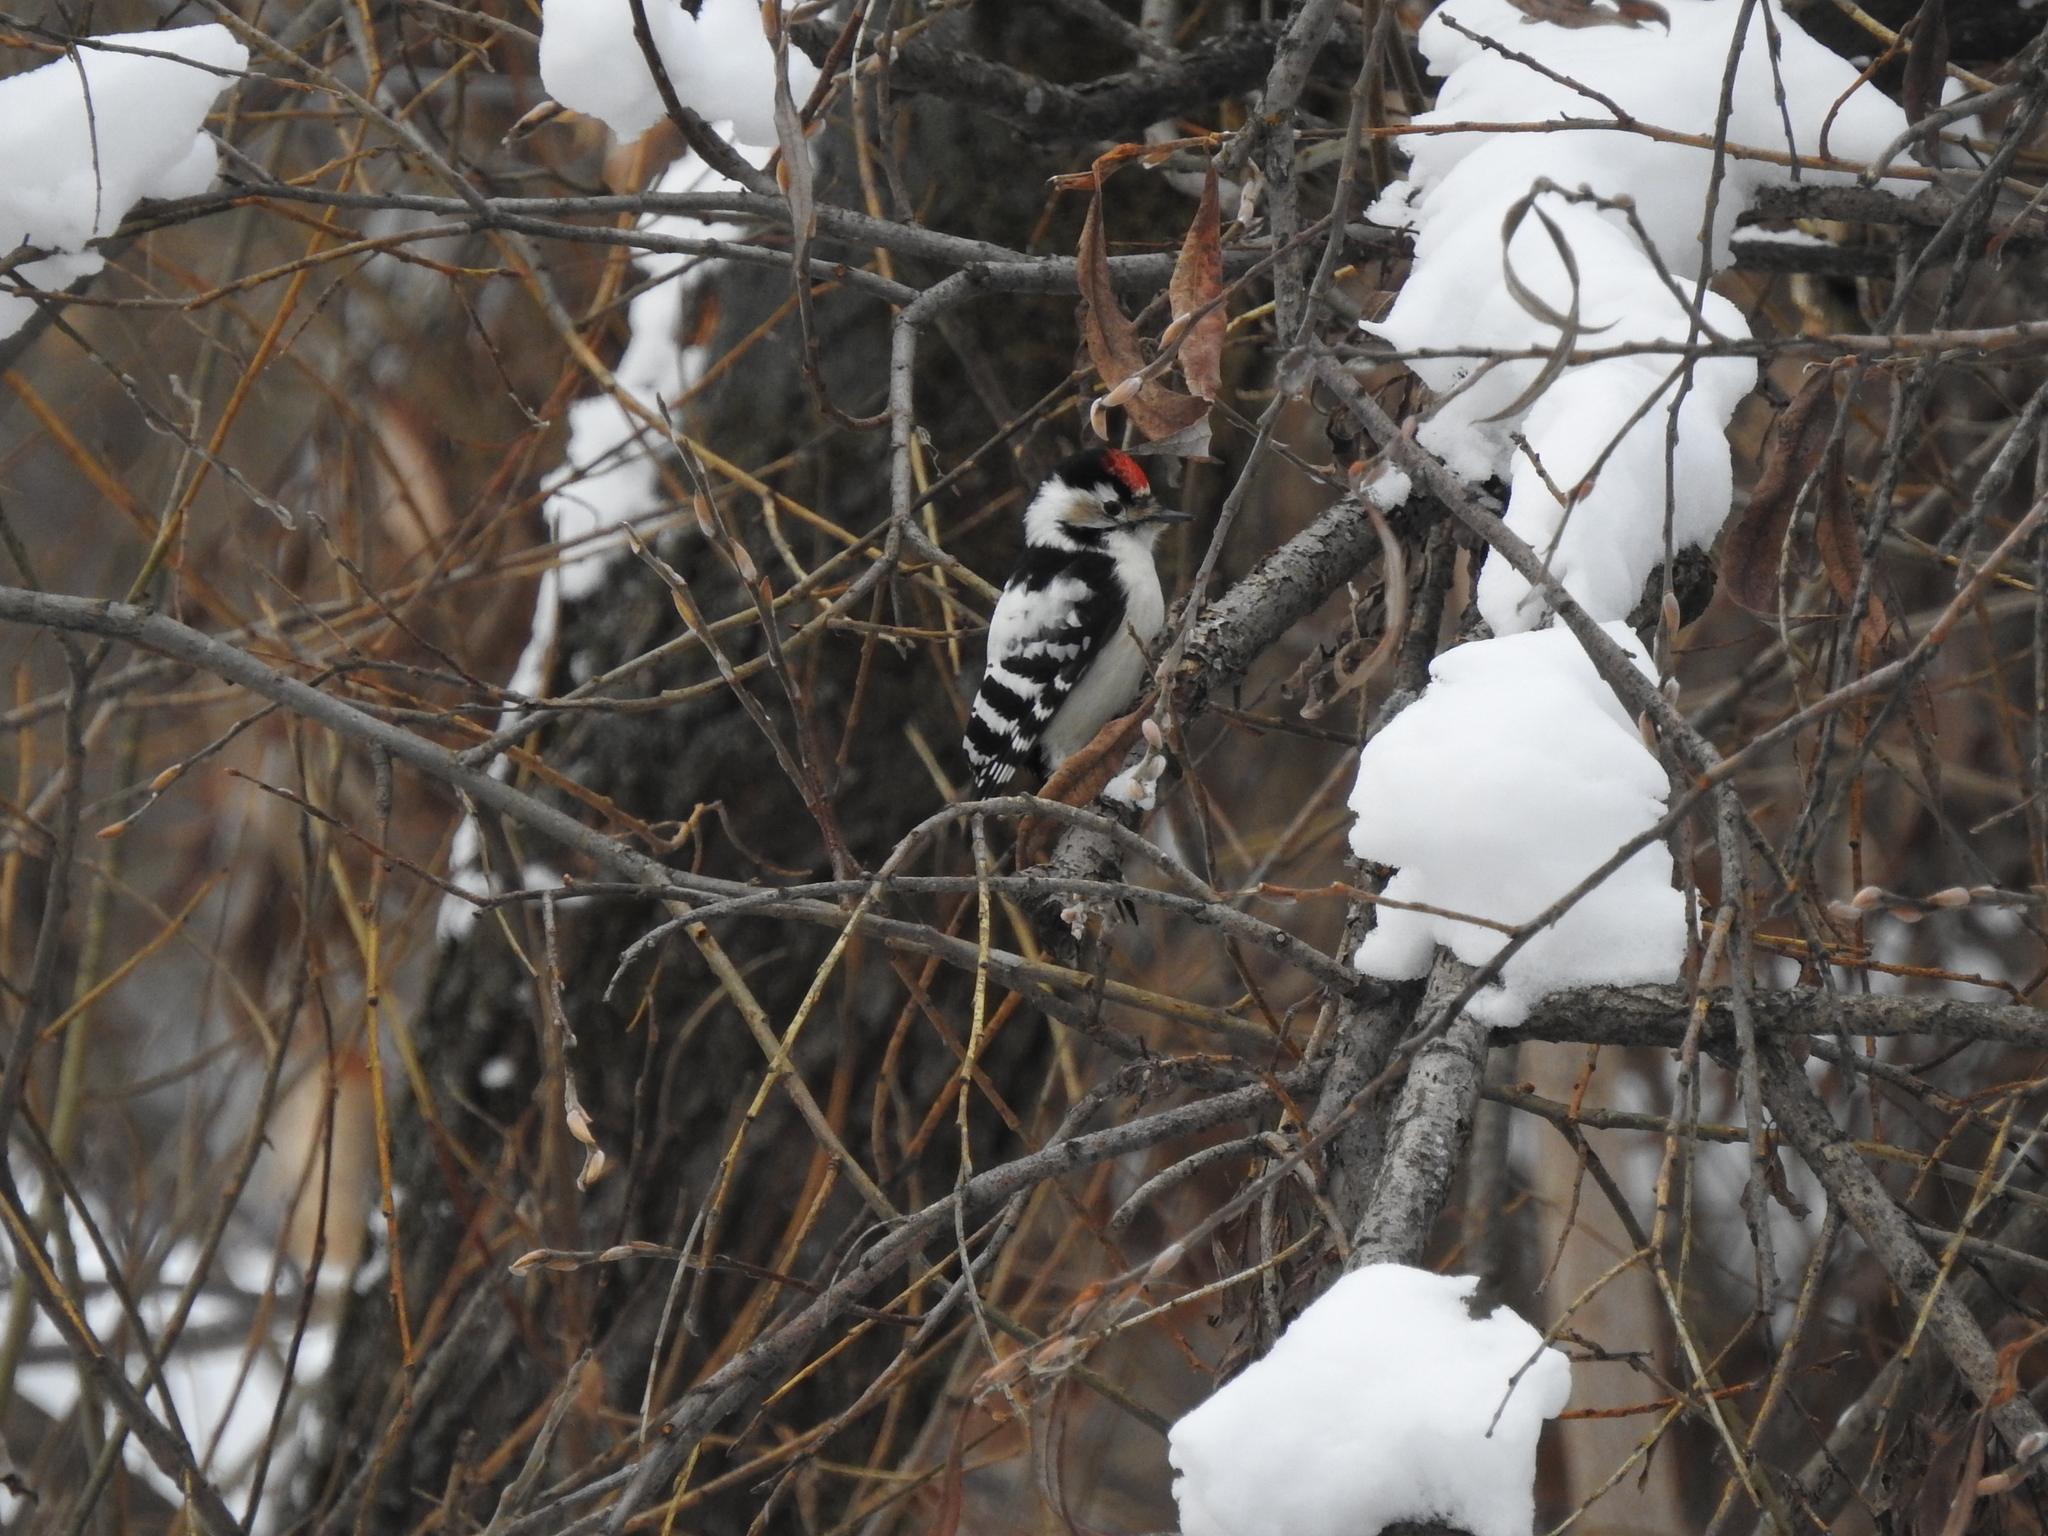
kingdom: Animalia
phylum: Chordata
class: Aves
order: Piciformes
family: Picidae
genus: Dryobates
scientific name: Dryobates minor
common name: Lesser spotted woodpecker
